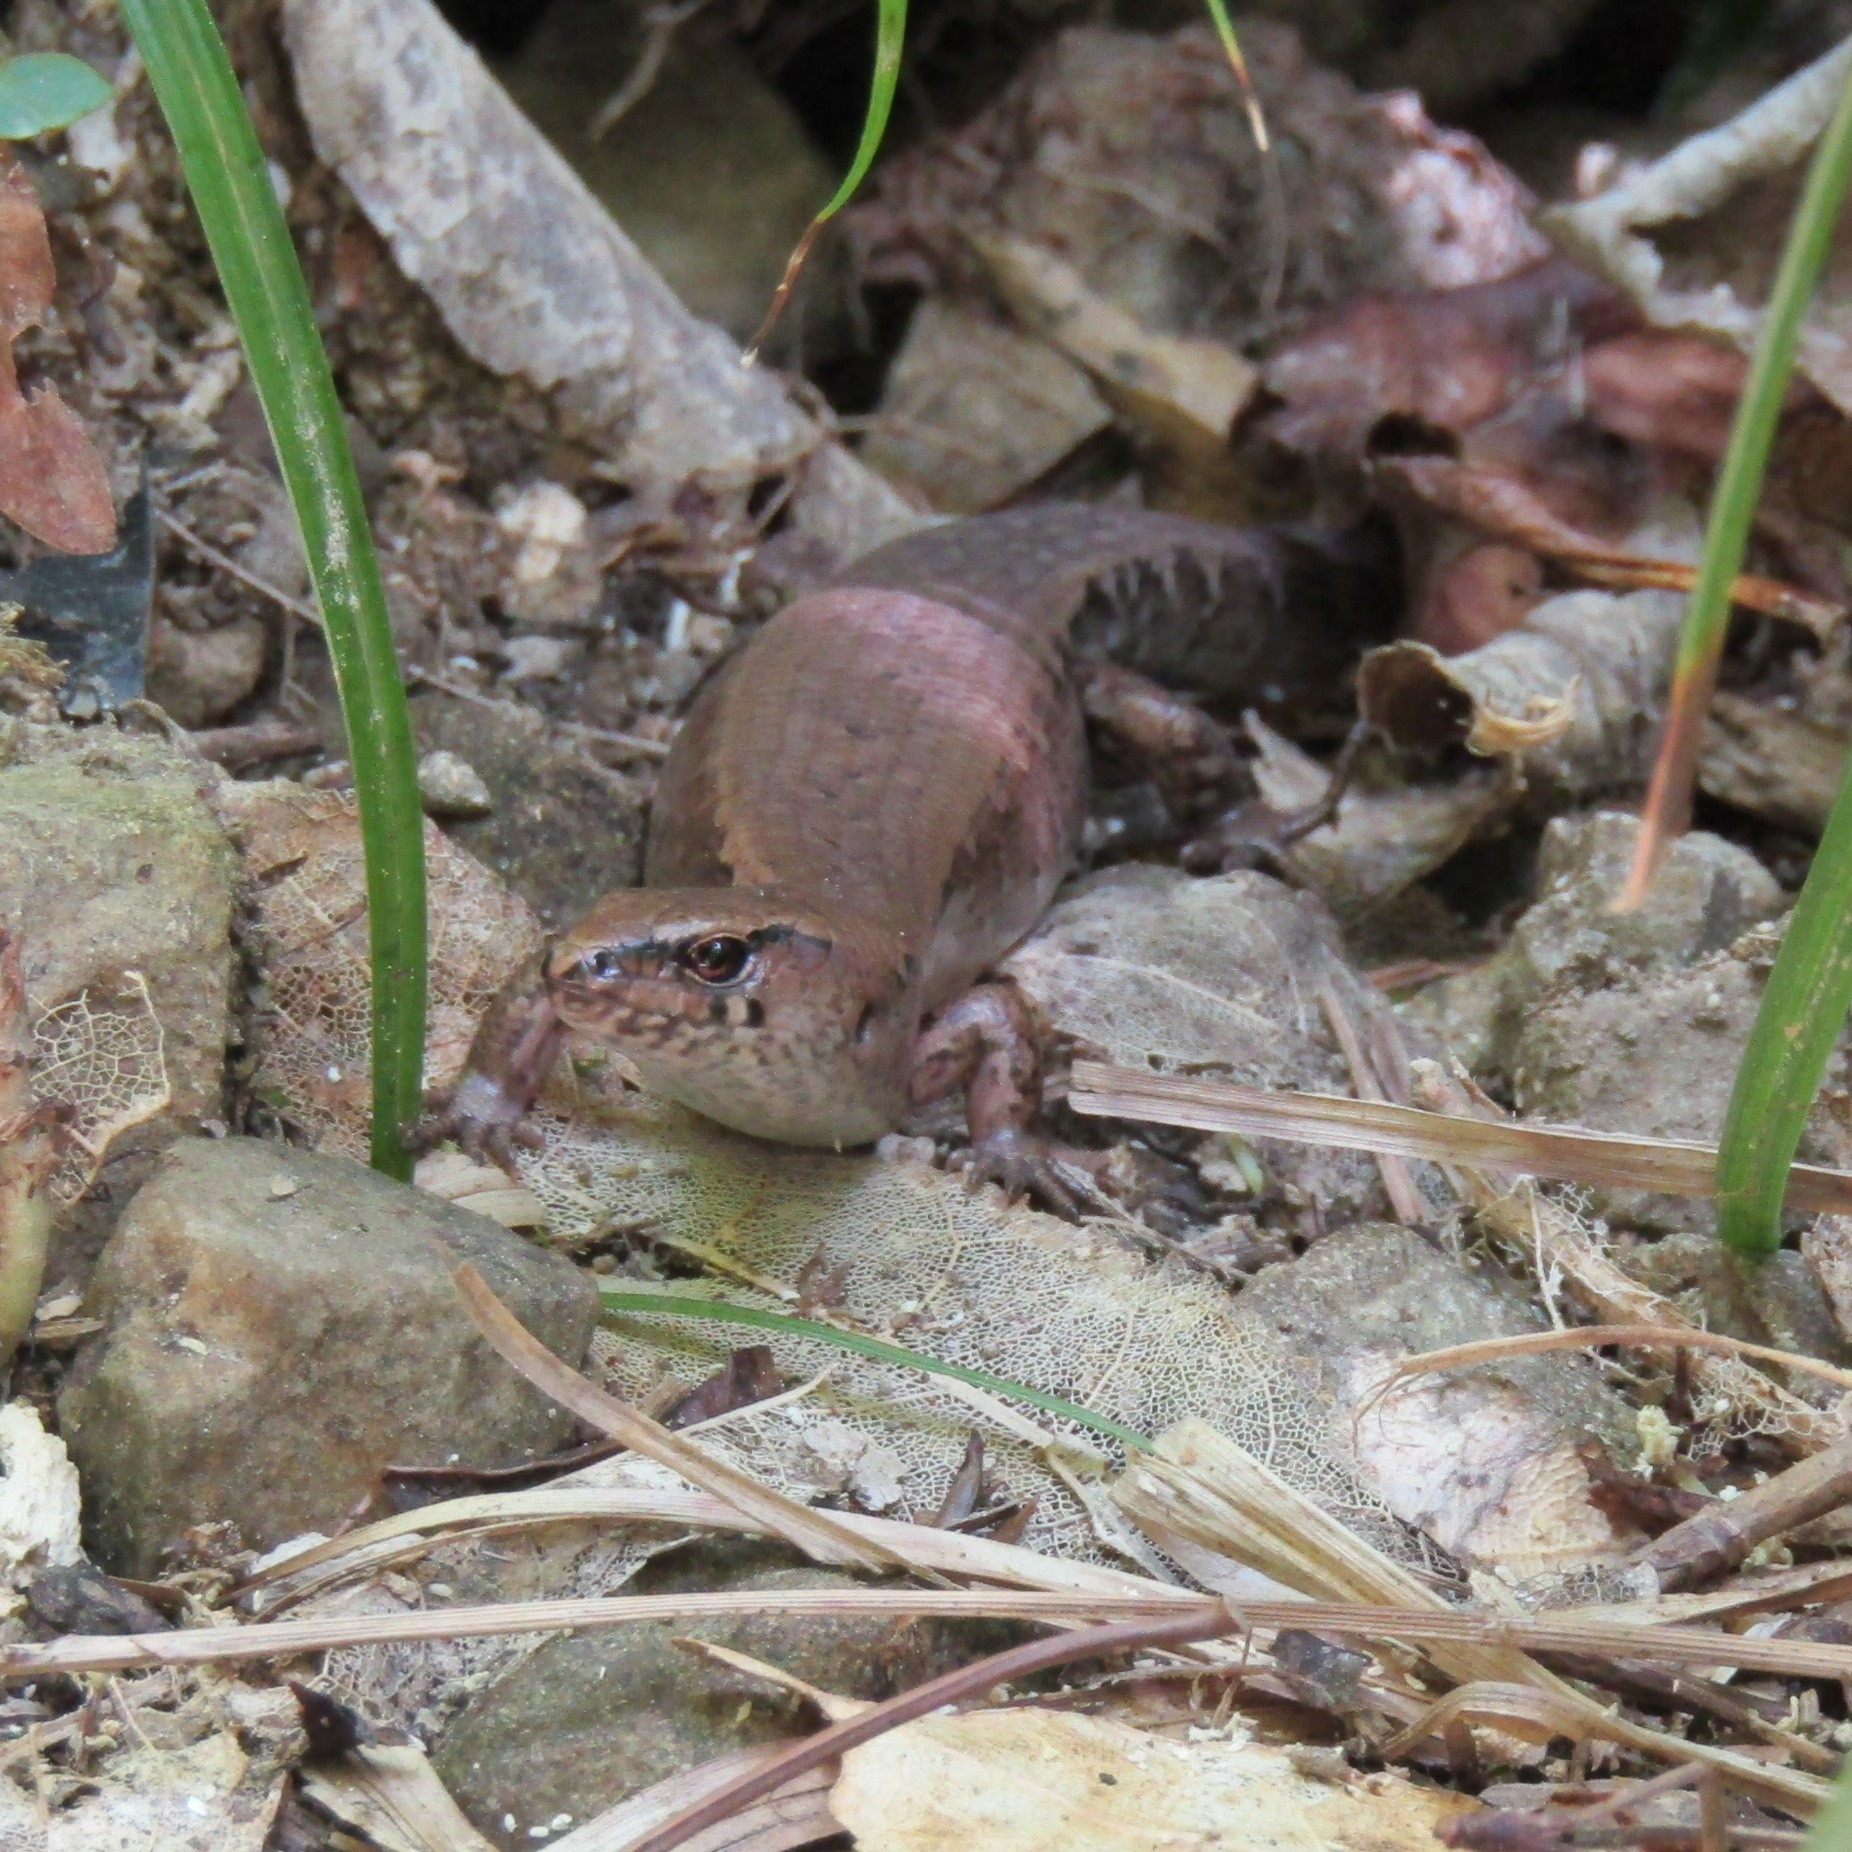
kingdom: Animalia
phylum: Chordata
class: Squamata
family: Scincidae
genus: Oligosoma
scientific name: Oligosoma ornatum
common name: Gray's ornate skink
